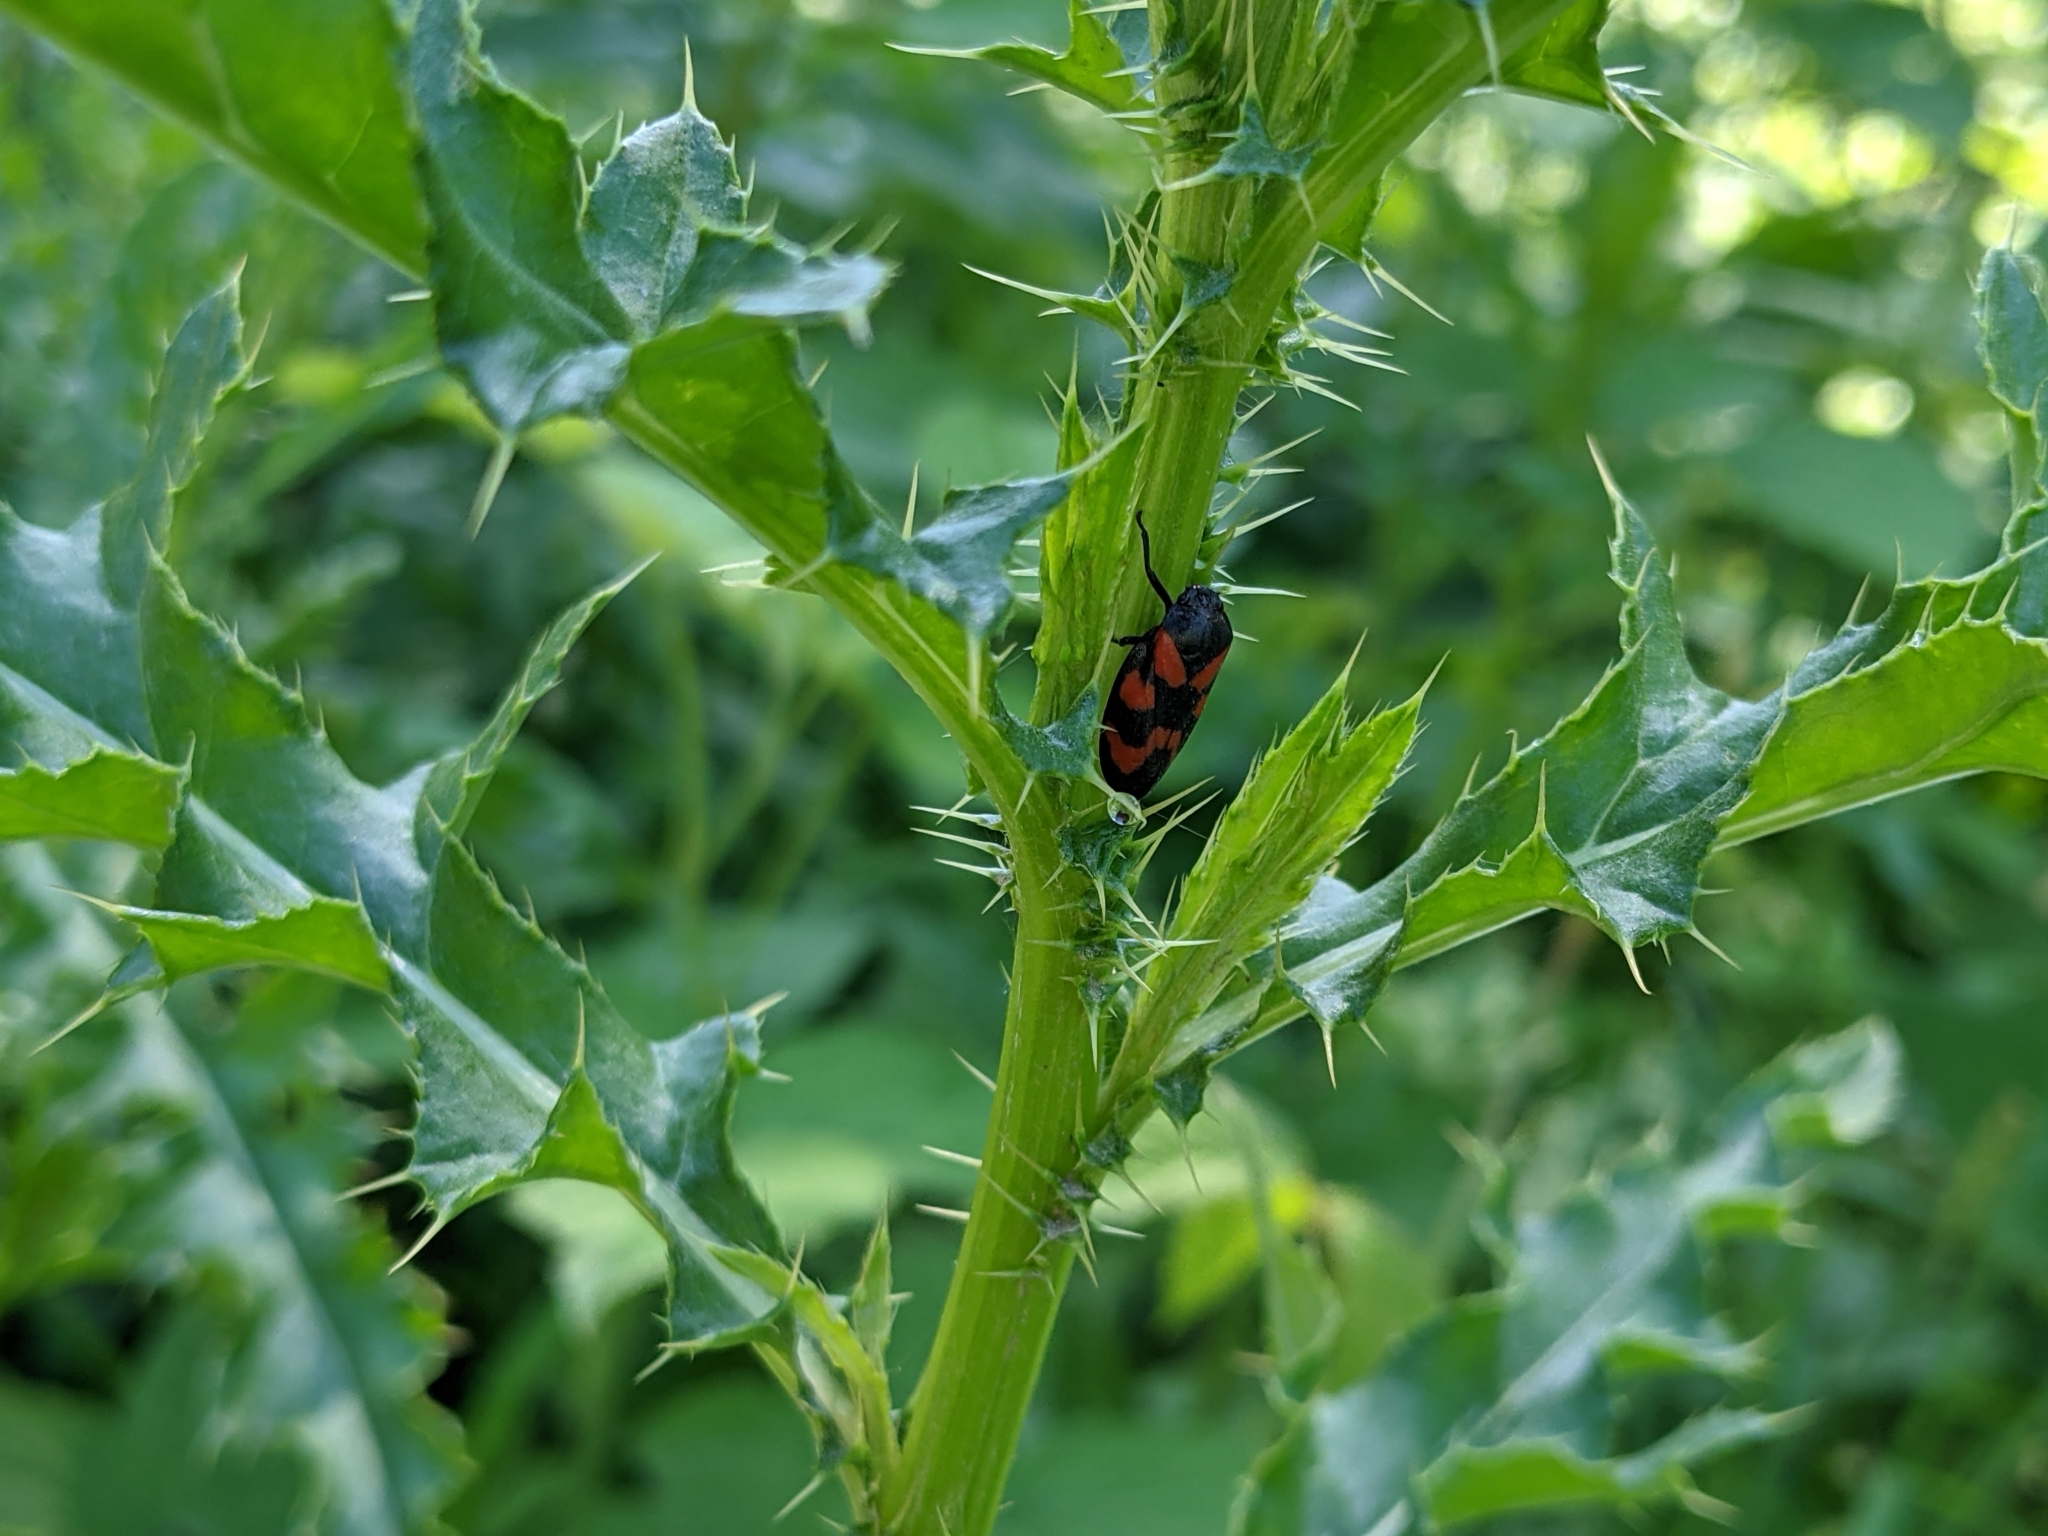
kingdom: Animalia
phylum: Arthropoda
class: Insecta
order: Hemiptera
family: Cercopidae
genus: Cercopis
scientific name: Cercopis vulnerata
